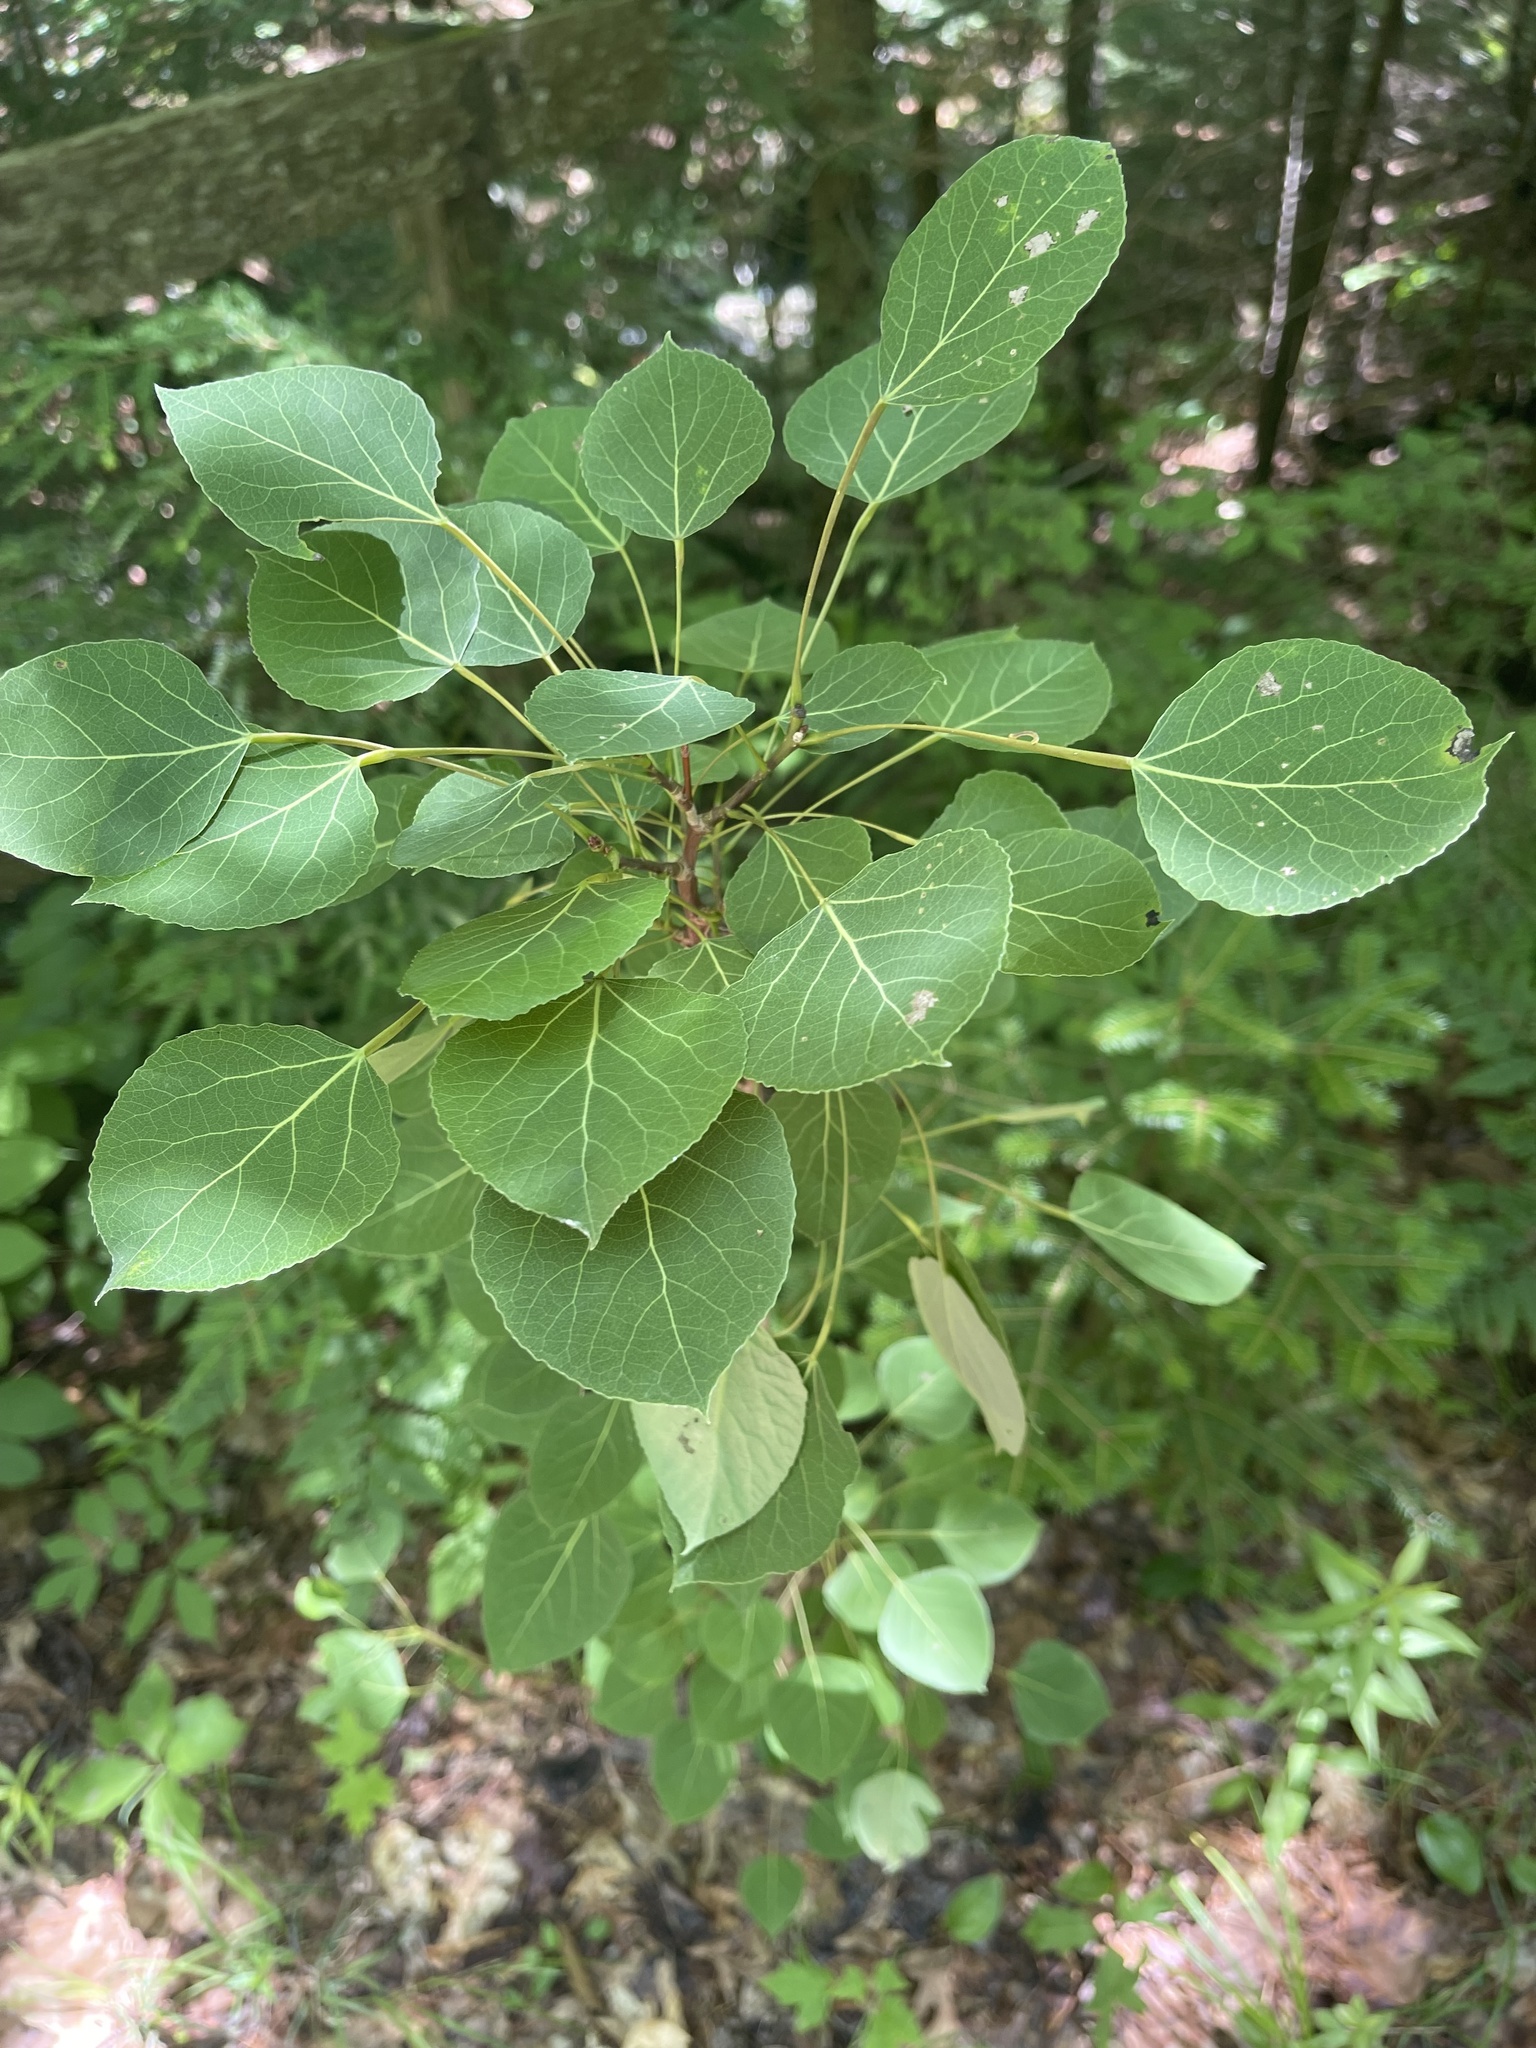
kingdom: Plantae
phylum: Tracheophyta
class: Magnoliopsida
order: Malpighiales
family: Salicaceae
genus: Populus
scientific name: Populus tremuloides
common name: Quaking aspen
